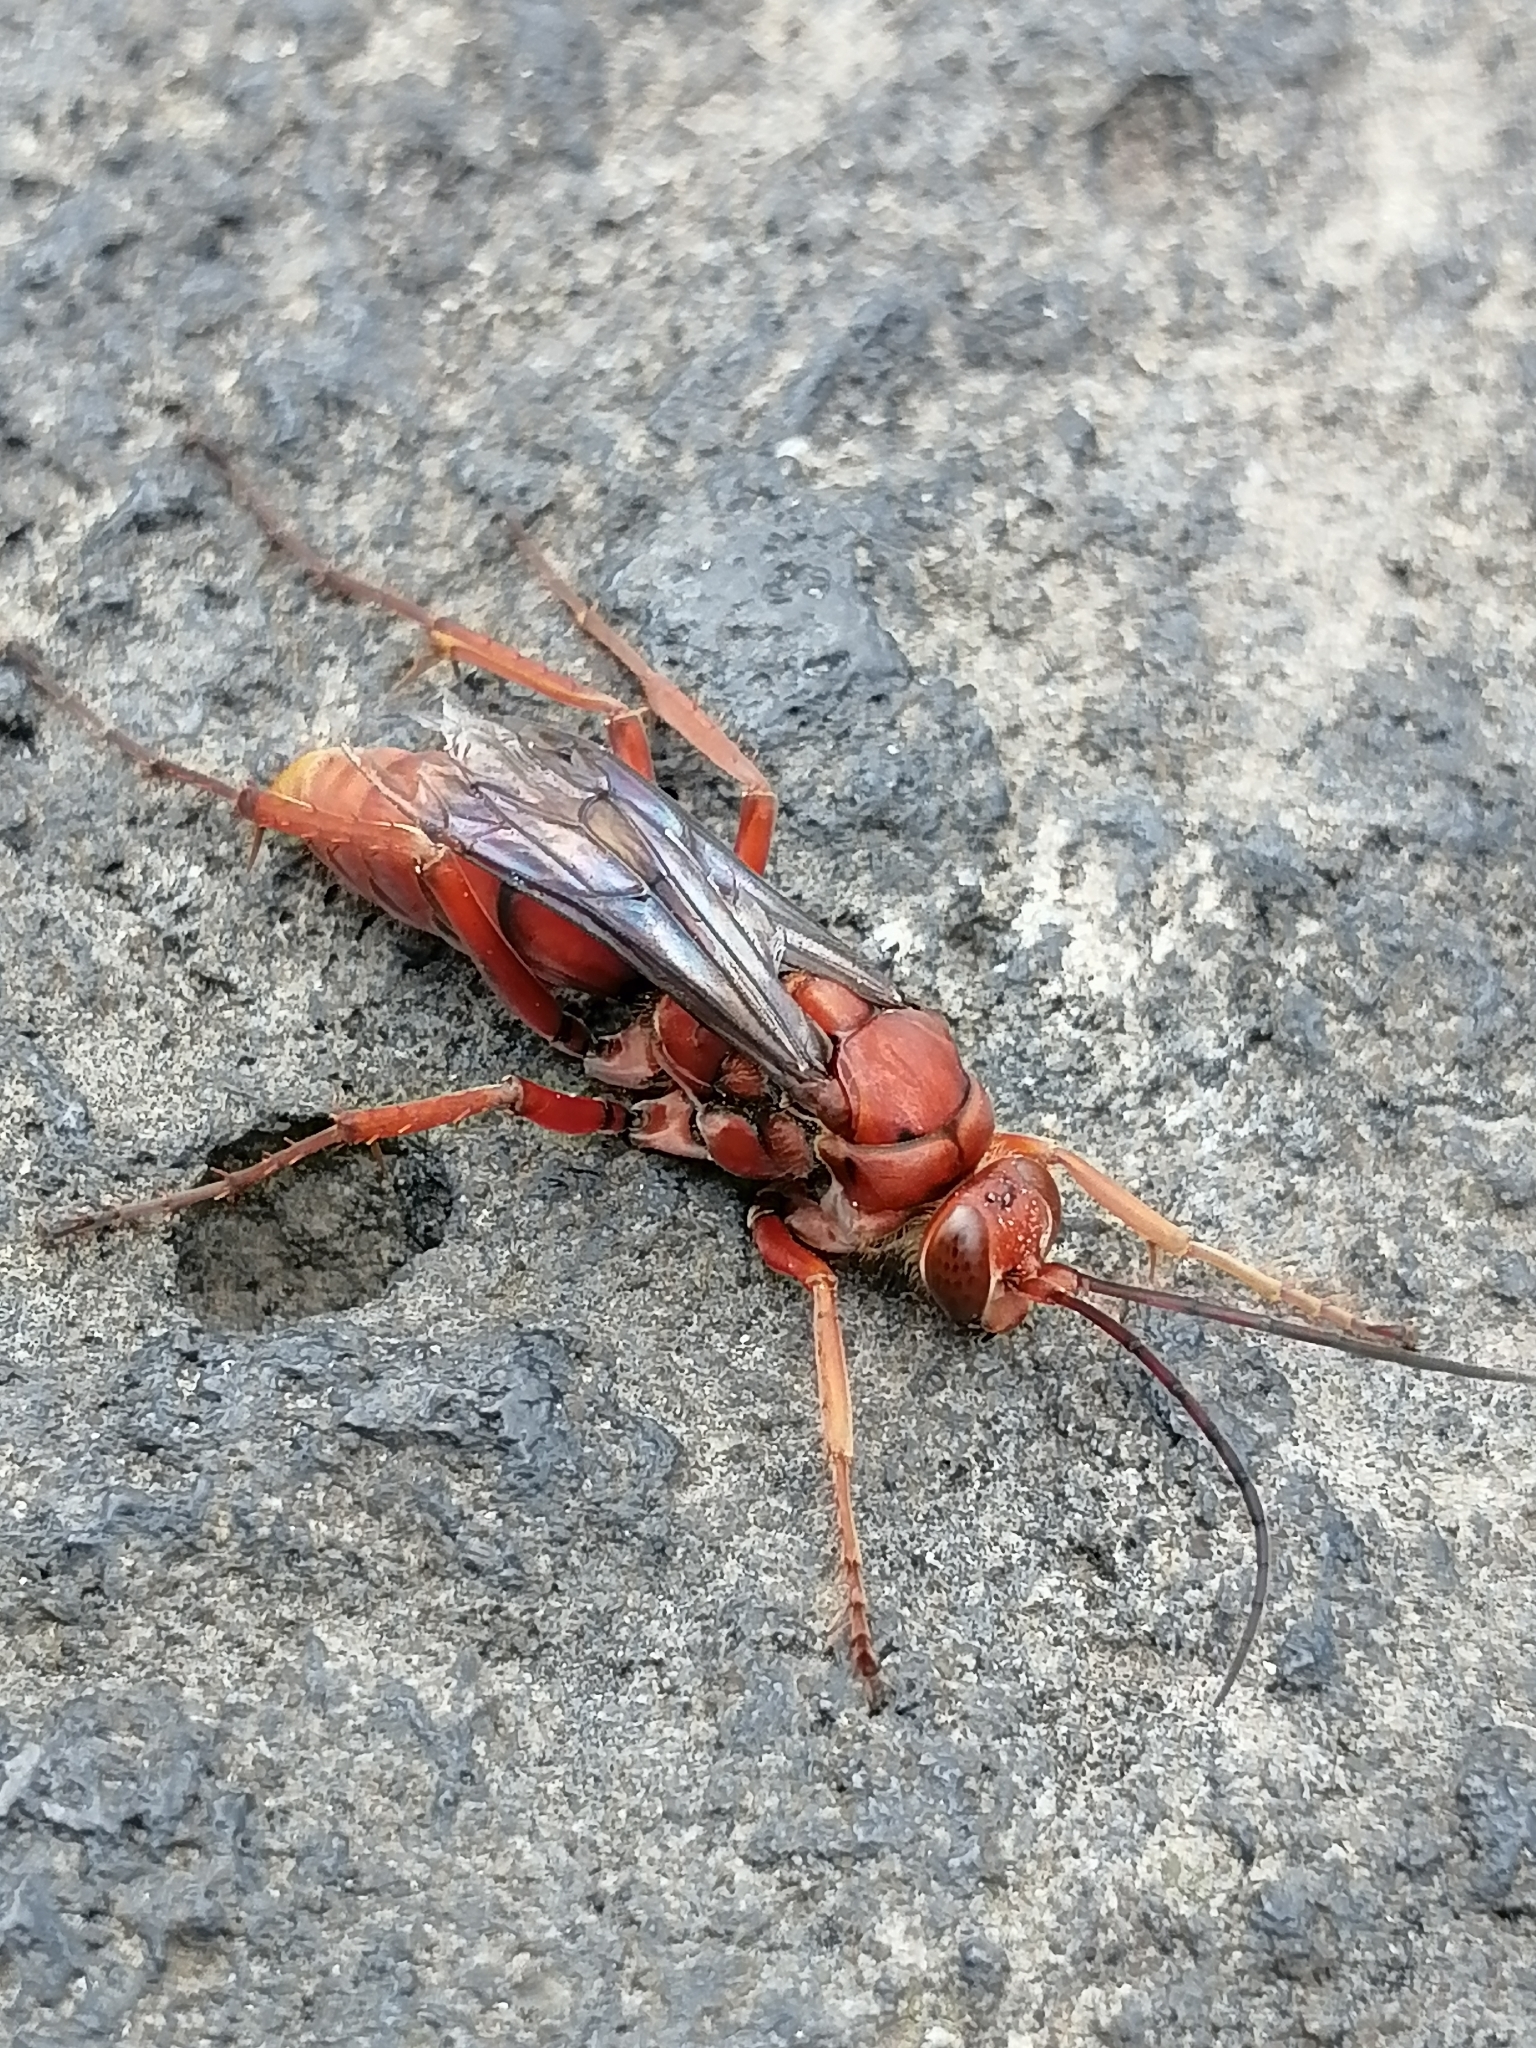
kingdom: Animalia
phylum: Arthropoda
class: Insecta
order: Hymenoptera
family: Pompilidae
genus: Tachypompilus
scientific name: Tachypompilus ferrugineus
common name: Rusty spider wasp
